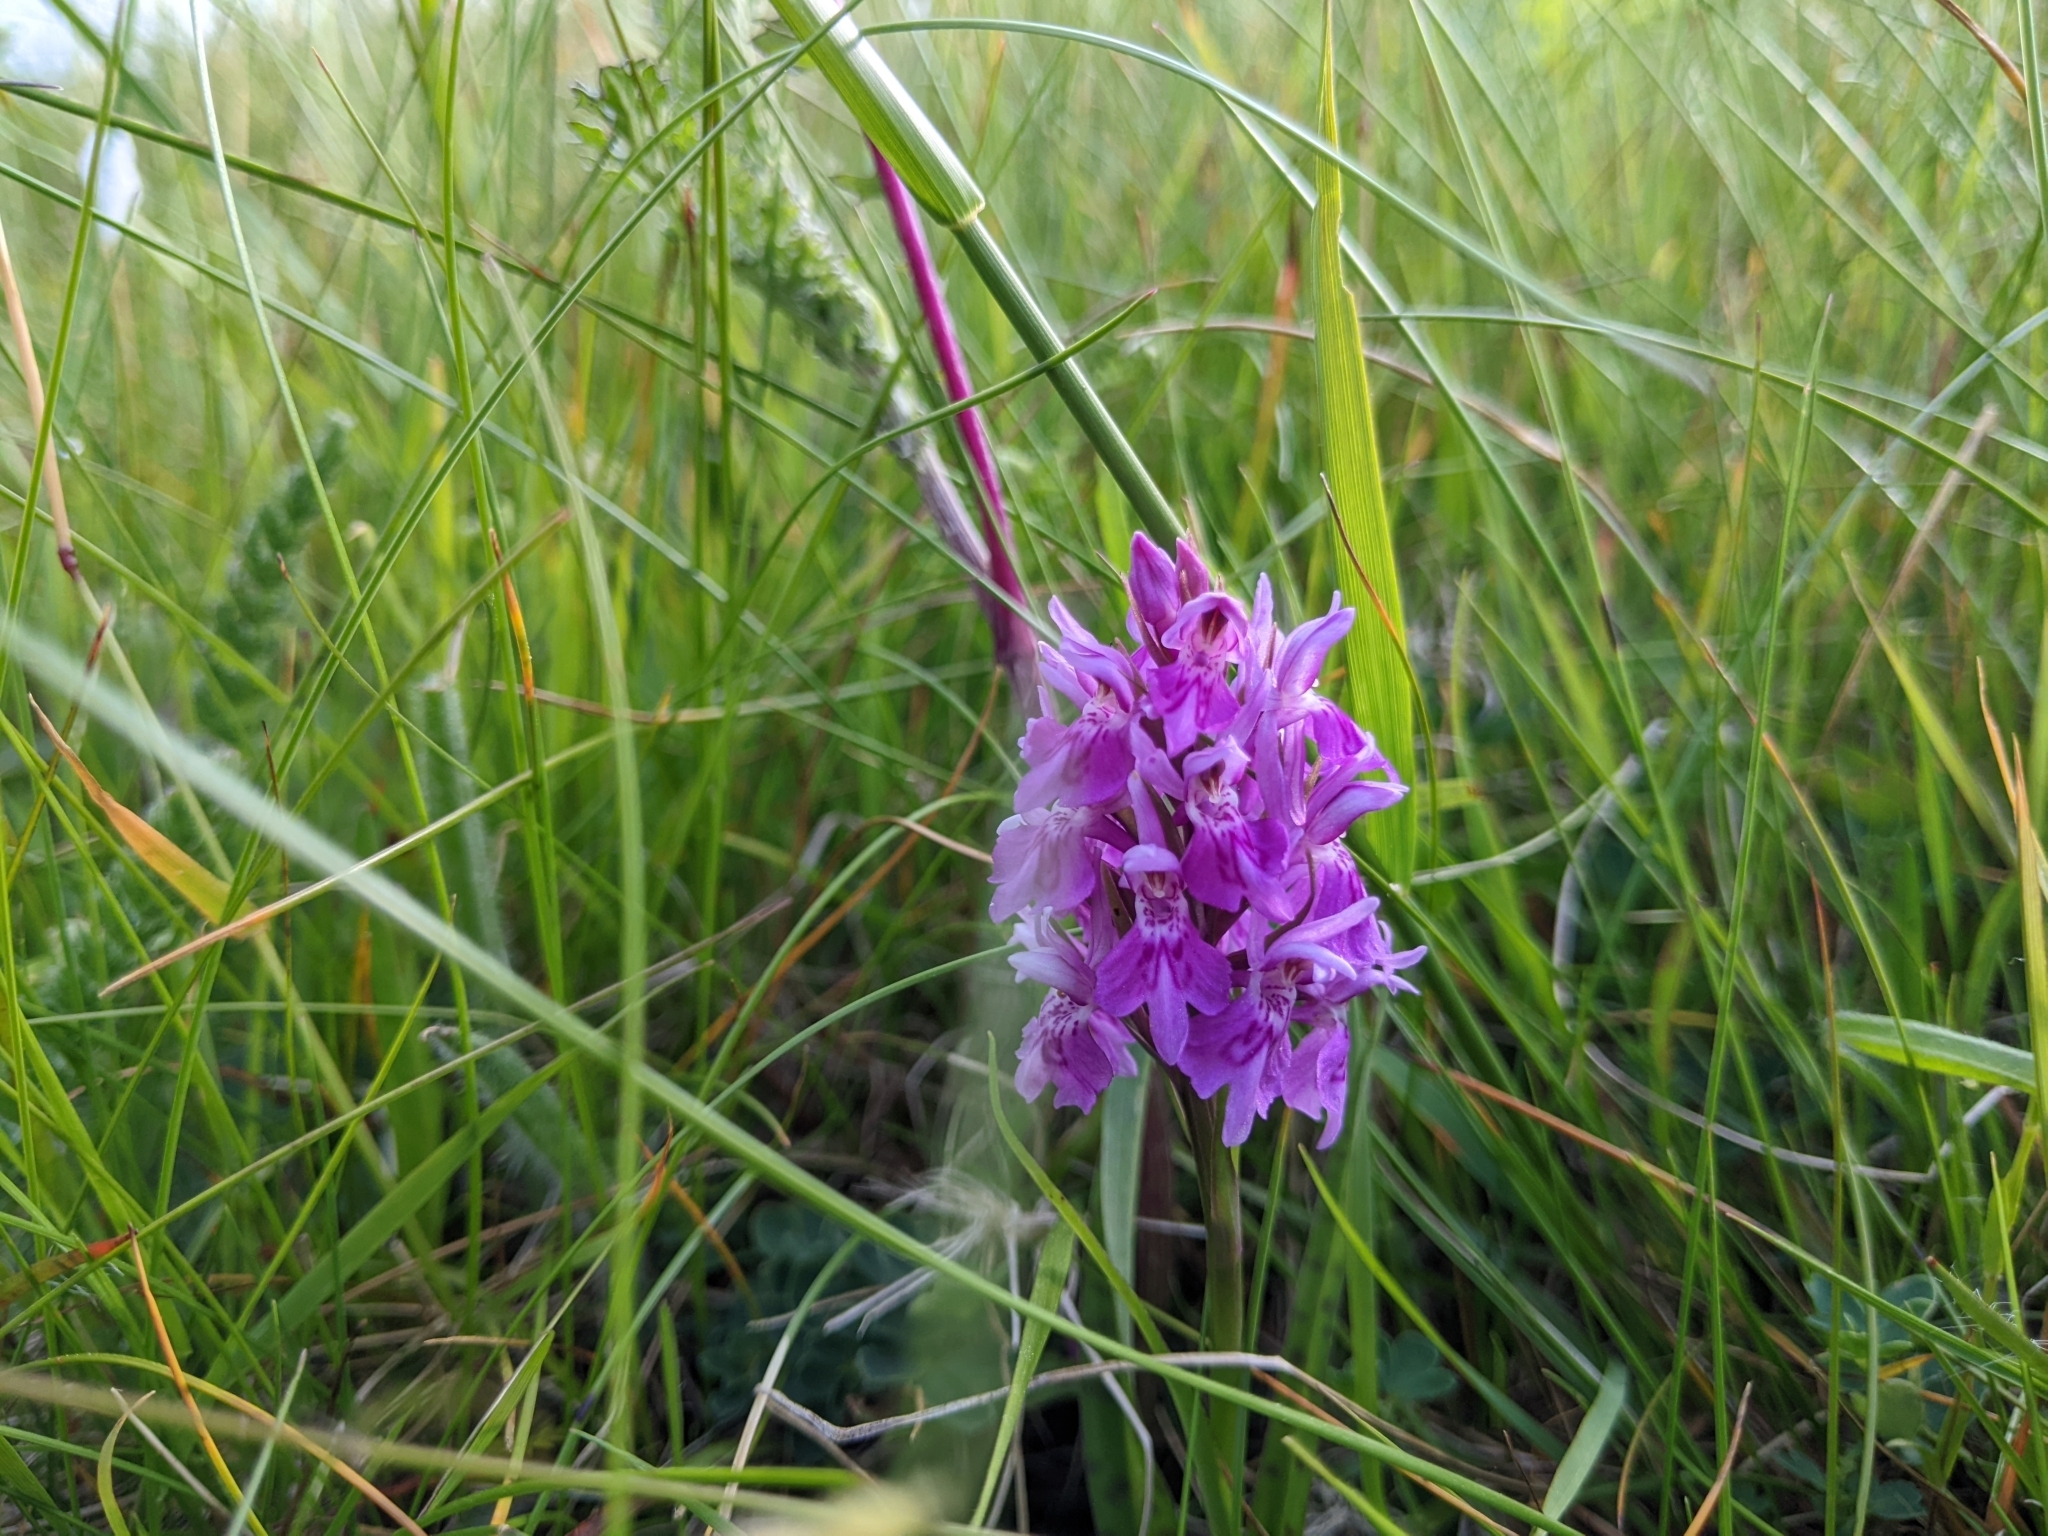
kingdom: Plantae
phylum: Tracheophyta
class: Liliopsida
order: Asparagales
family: Orchidaceae
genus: Dactylorhiza
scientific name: Dactylorhiza maculata
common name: Heath spotted-orchid
